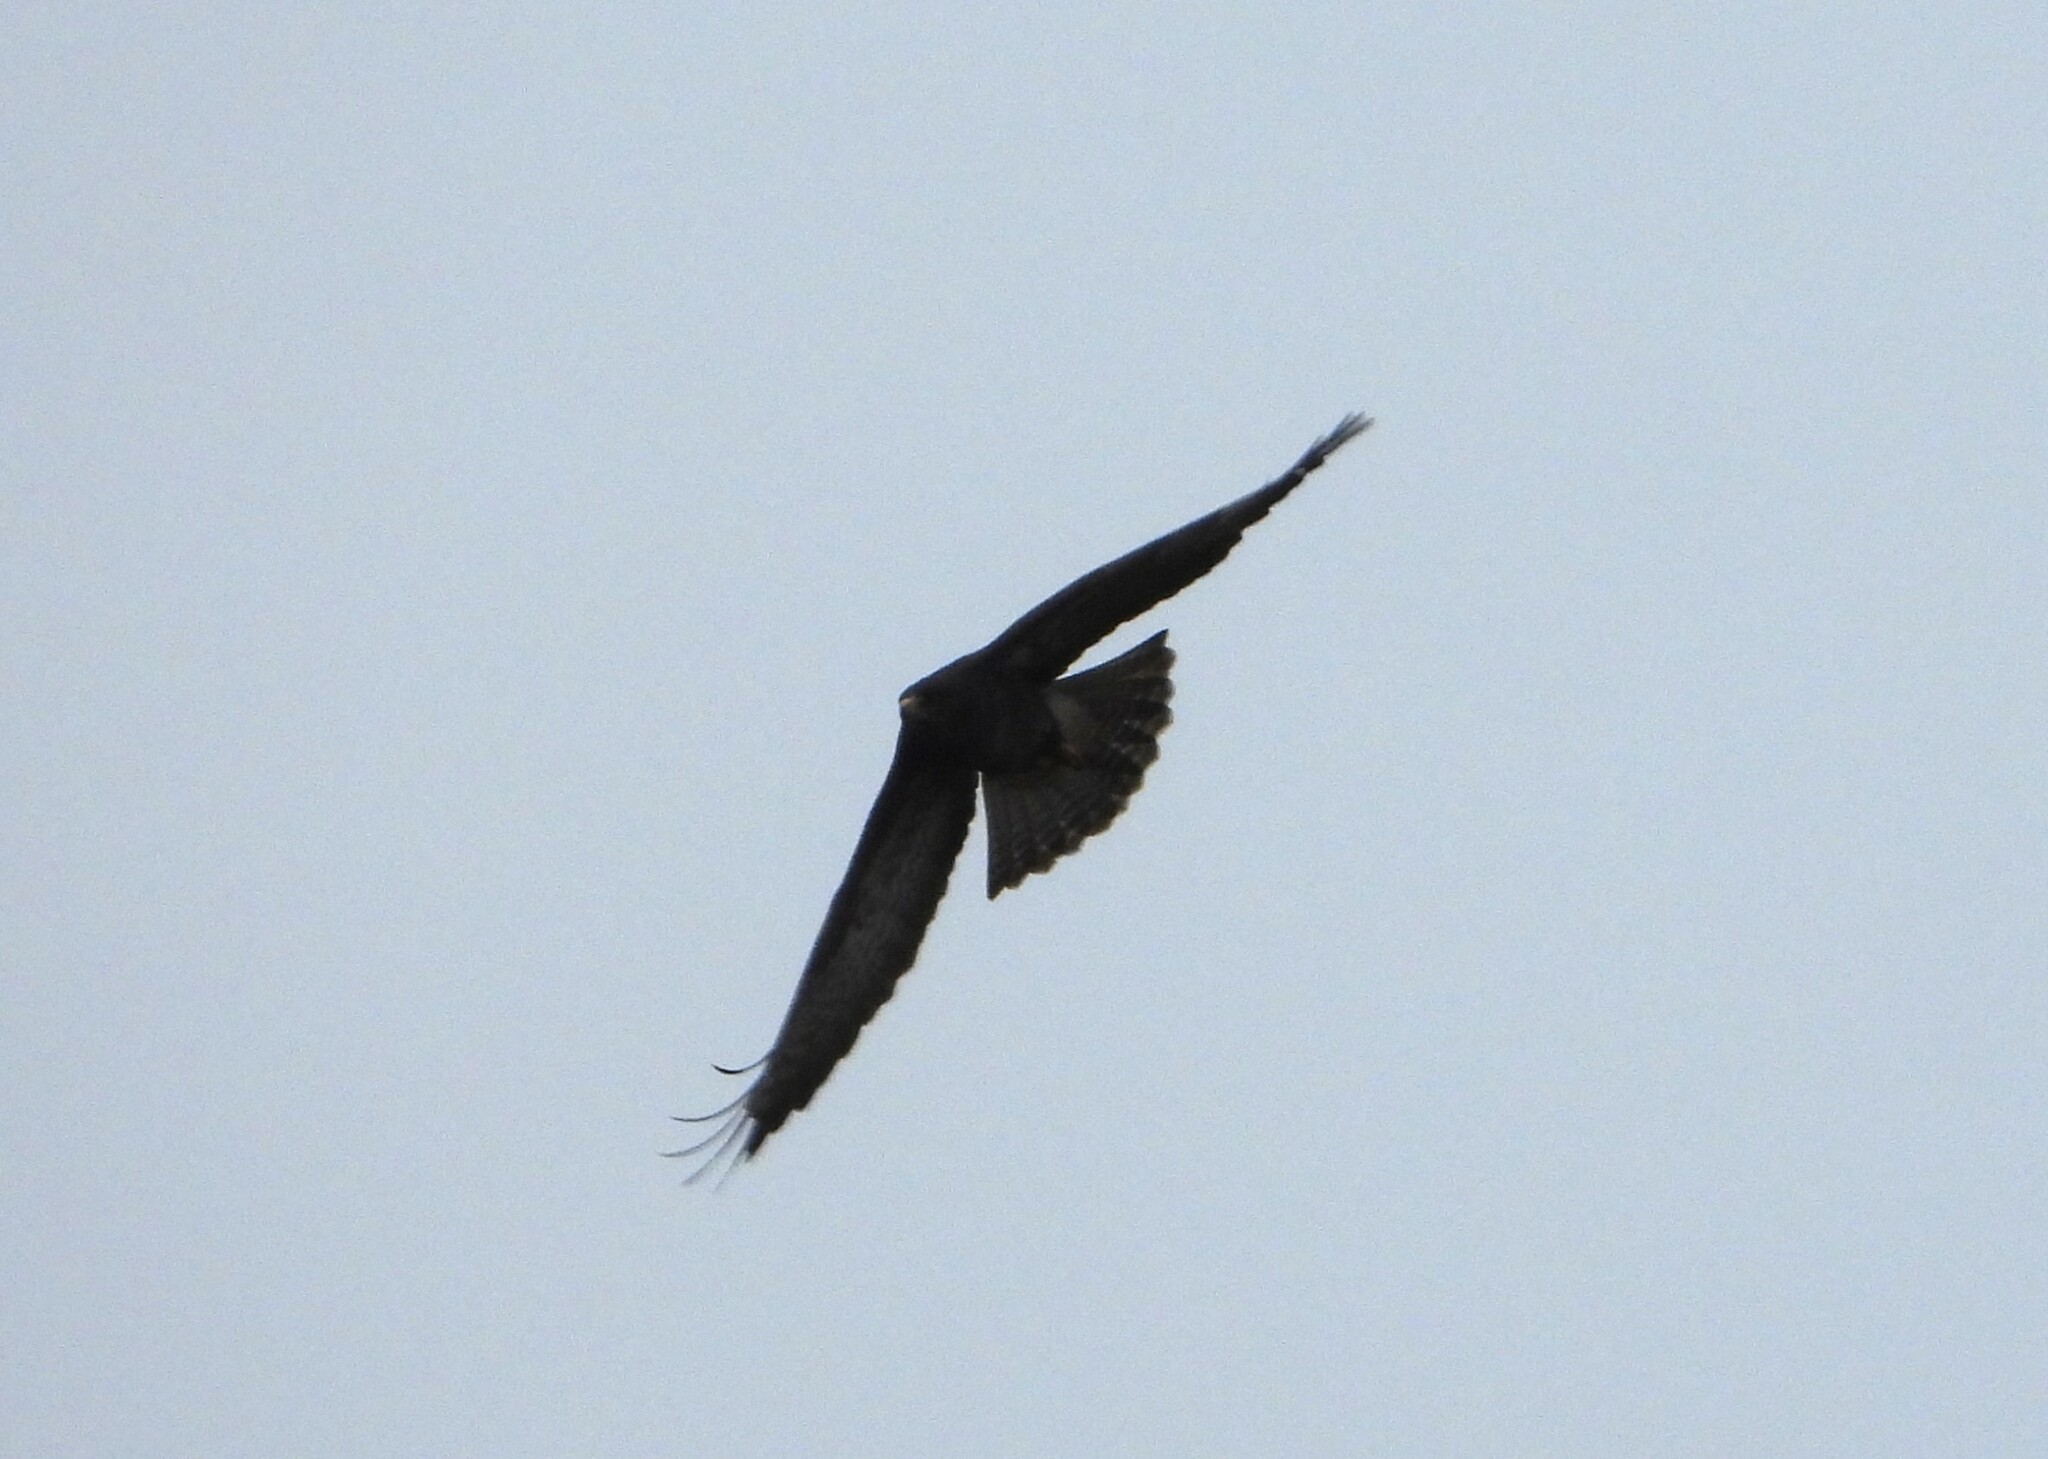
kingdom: Animalia
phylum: Chordata
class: Aves
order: Accipitriformes
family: Accipitridae
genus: Buteo
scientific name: Buteo buteo
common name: Common buzzard
